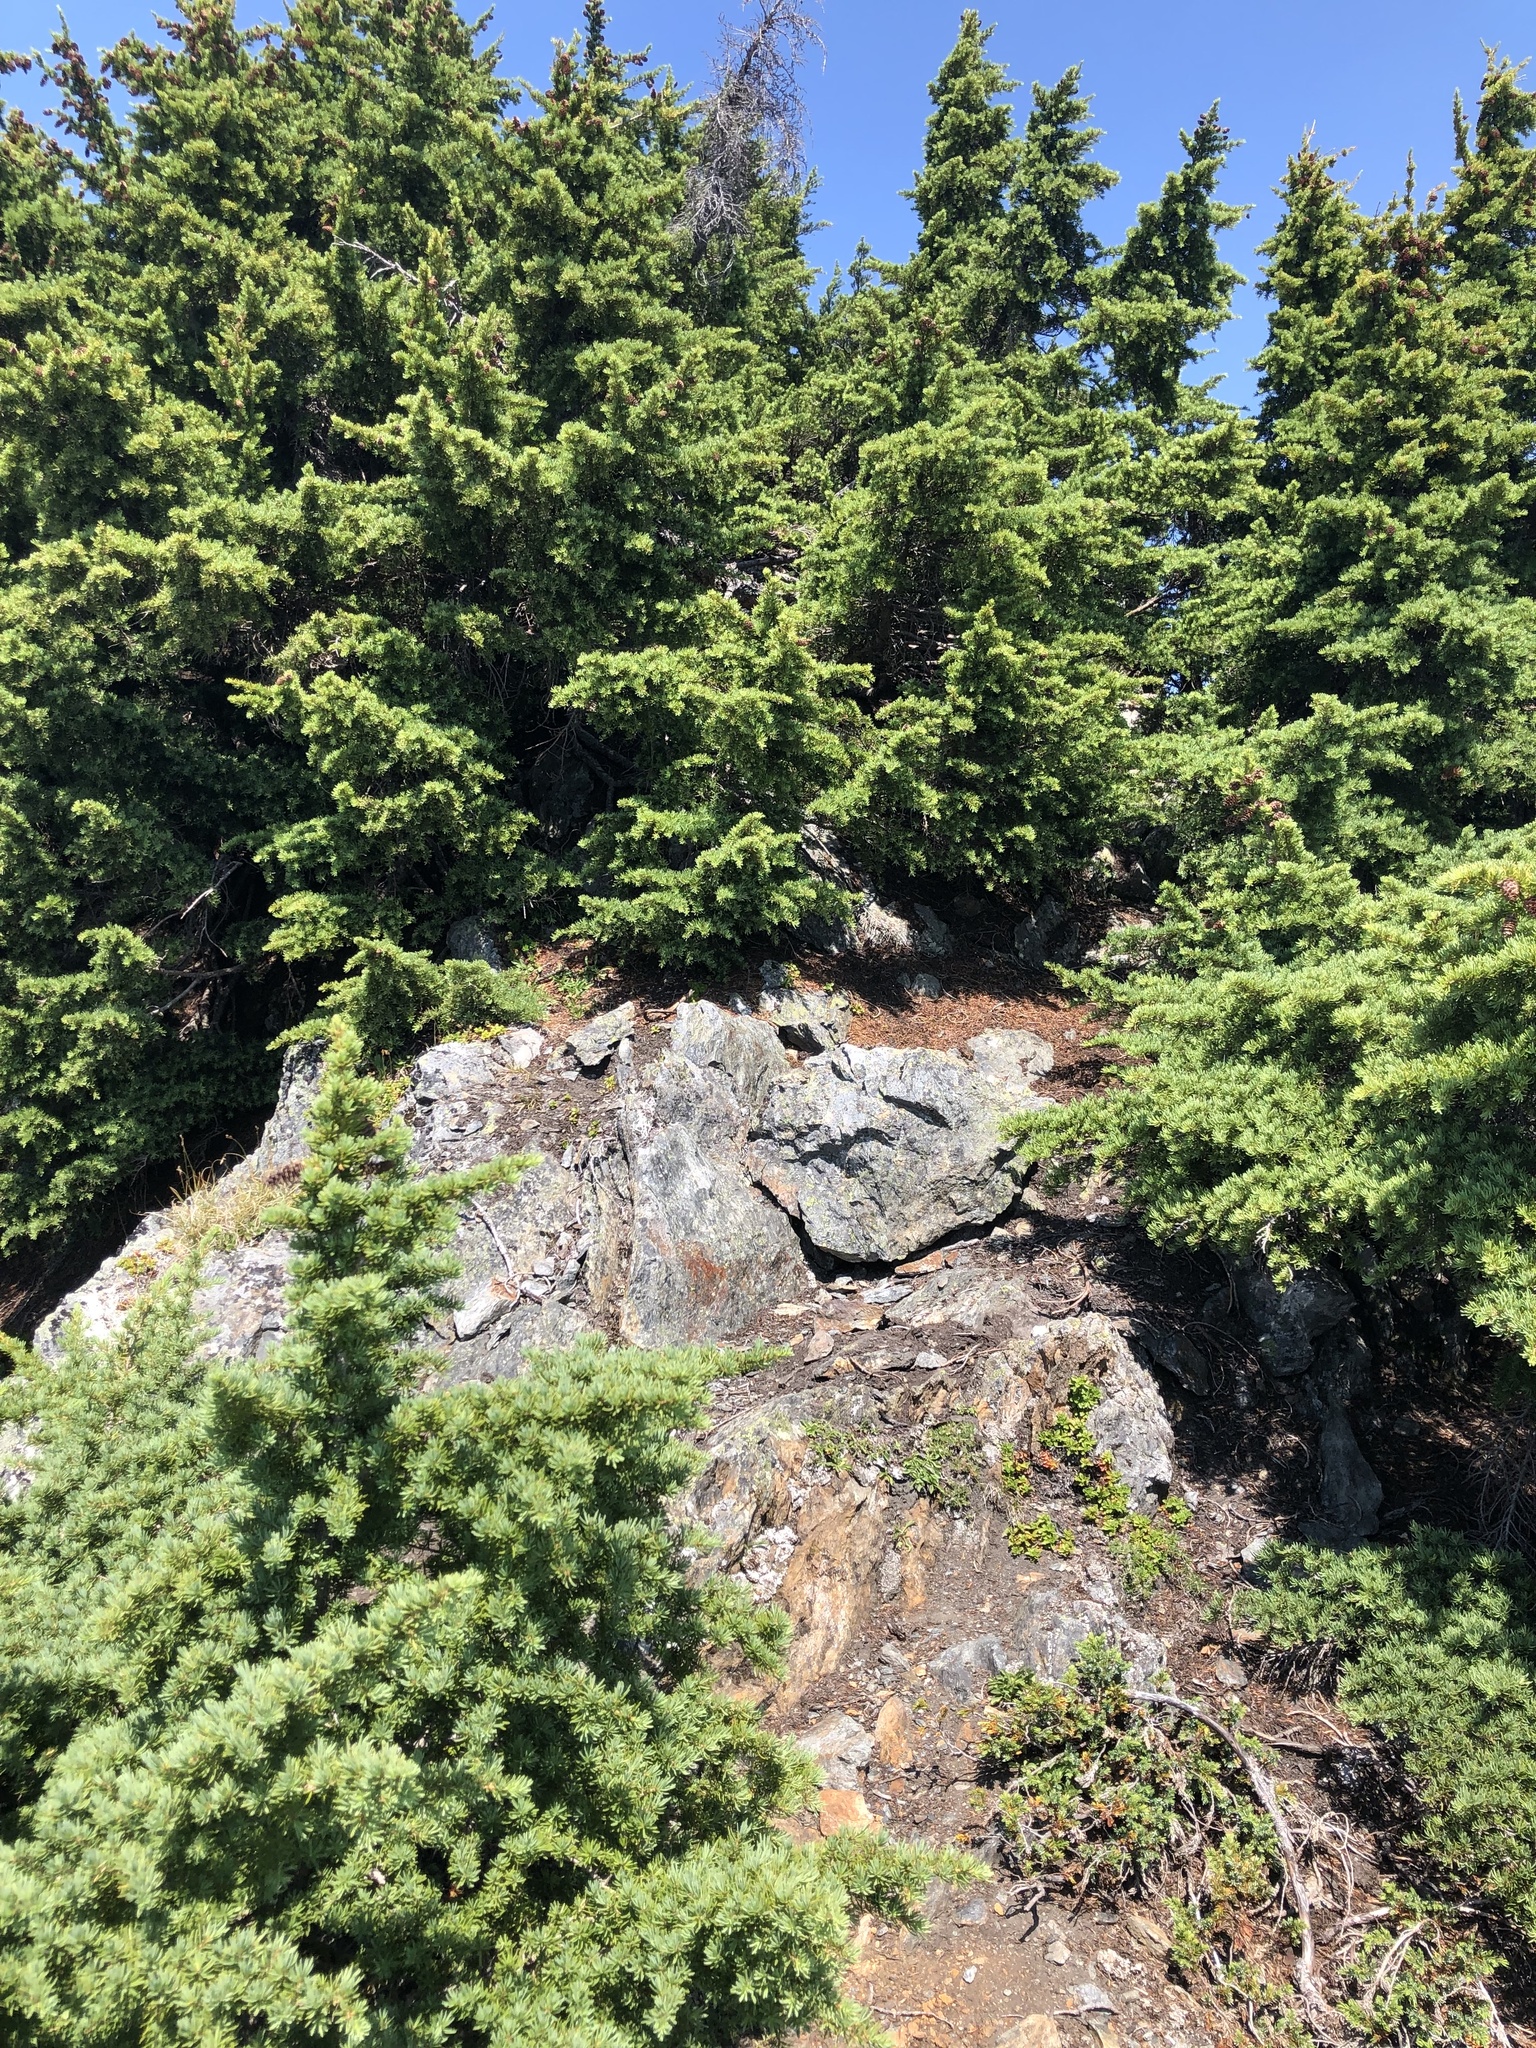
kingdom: Plantae
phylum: Tracheophyta
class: Pinopsida
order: Pinales
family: Pinaceae
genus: Tsuga
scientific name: Tsuga mertensiana
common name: Mountain hemlock
